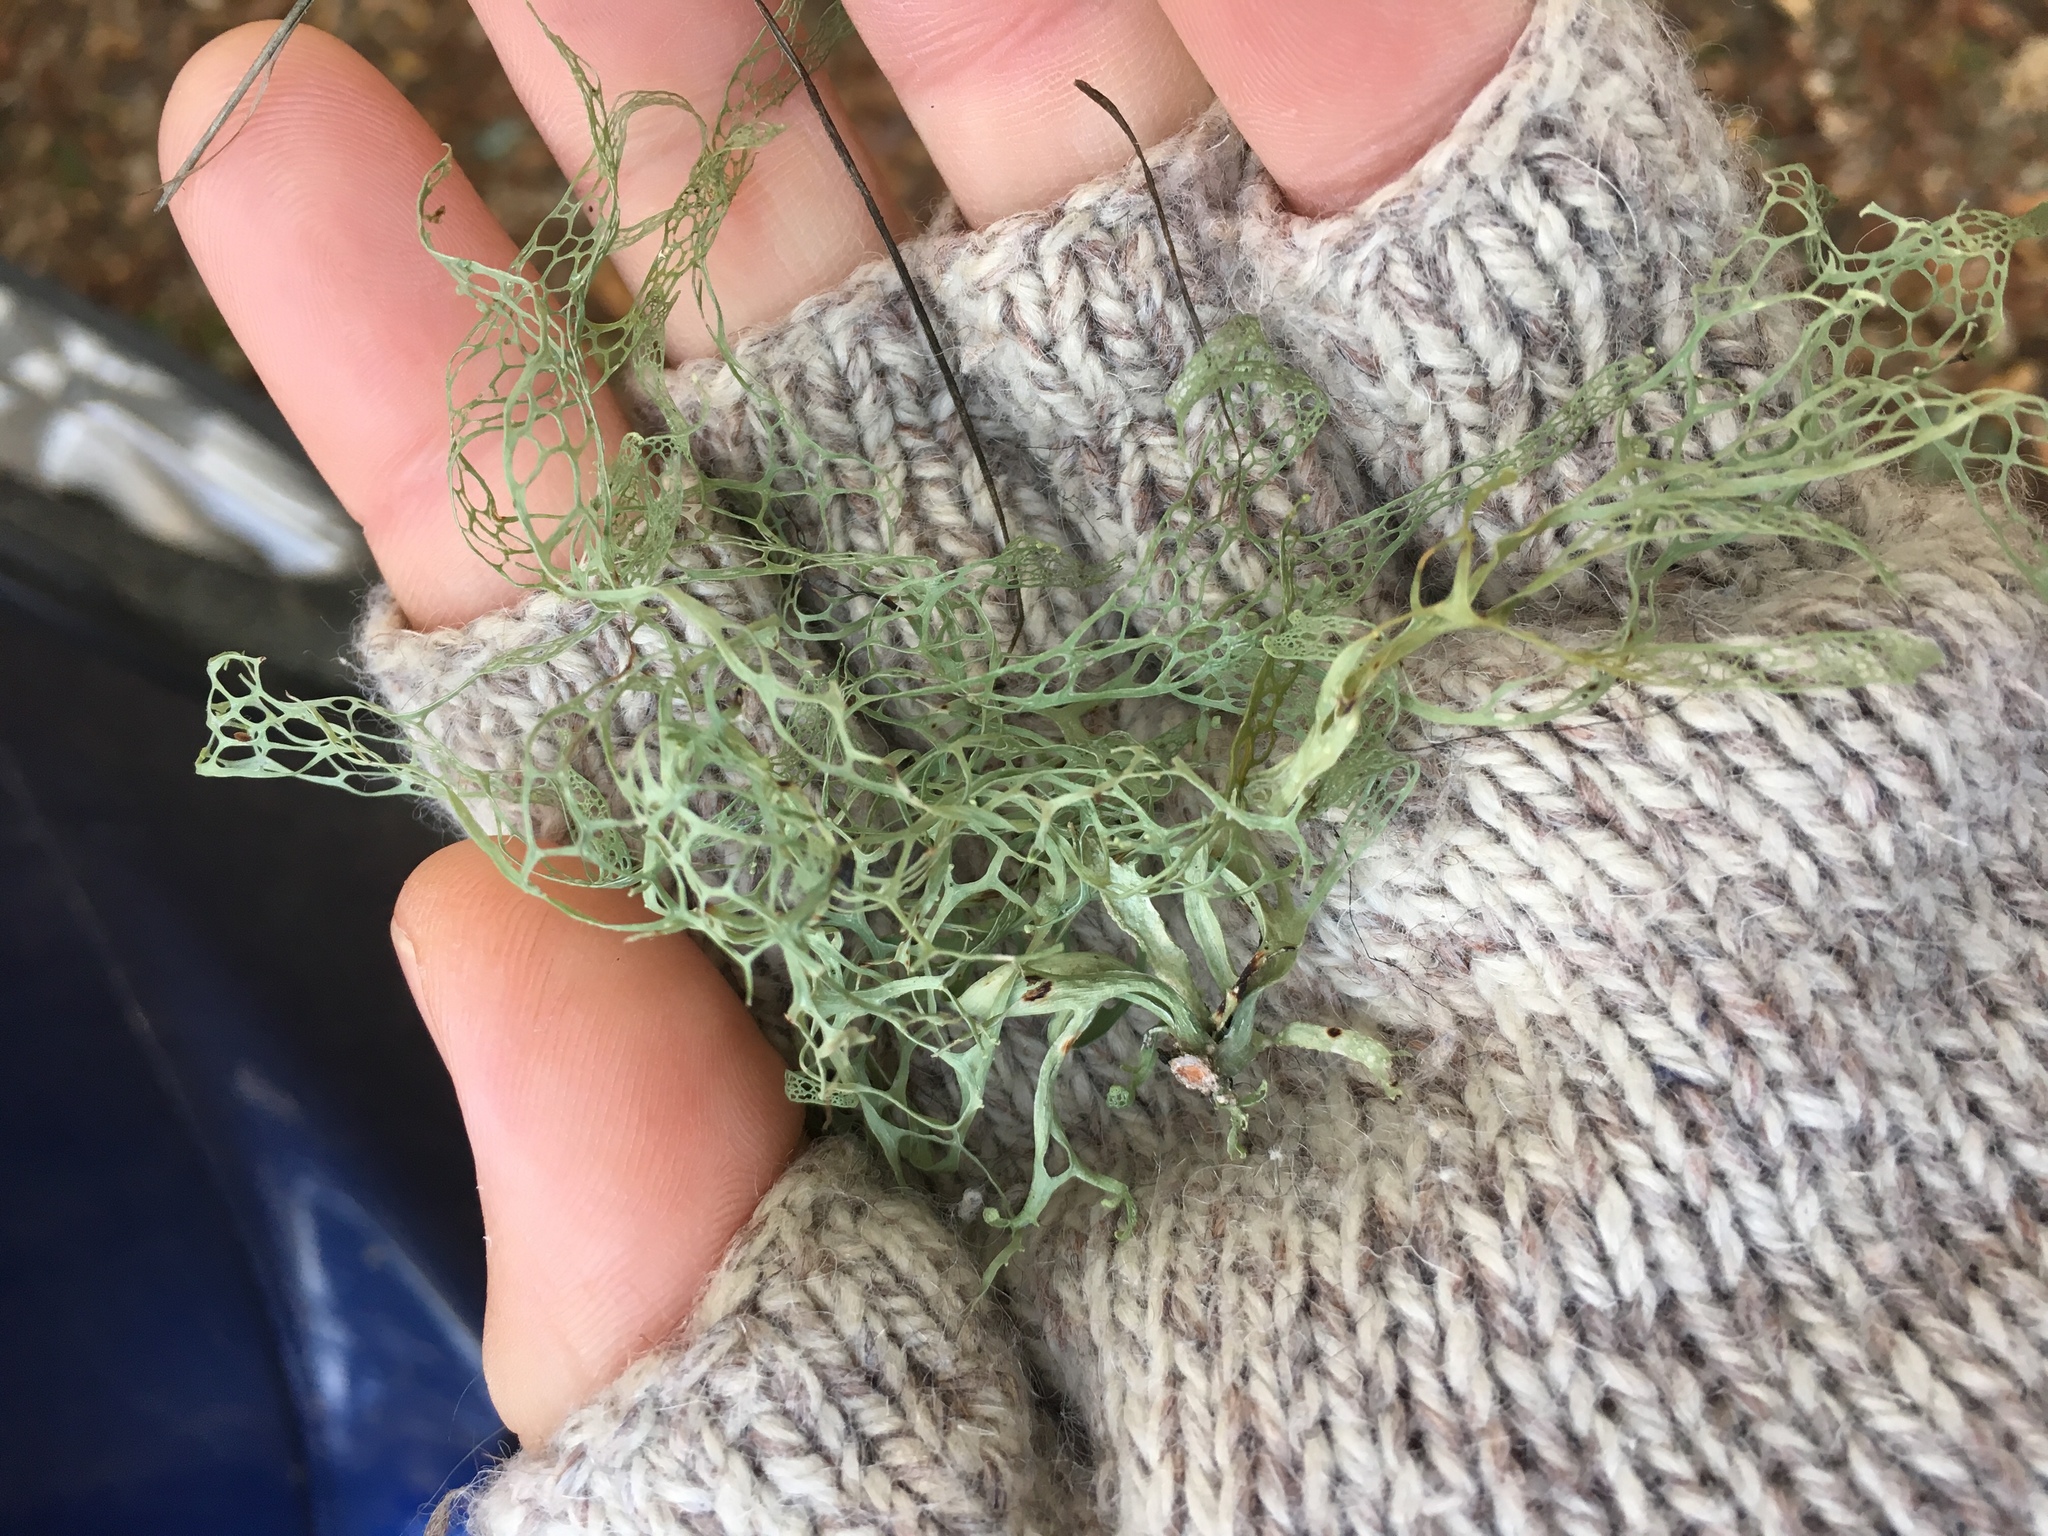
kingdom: Fungi
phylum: Ascomycota
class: Lecanoromycetes
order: Lecanorales
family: Ramalinaceae
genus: Ramalina
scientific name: Ramalina menziesii
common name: Lace lichen
